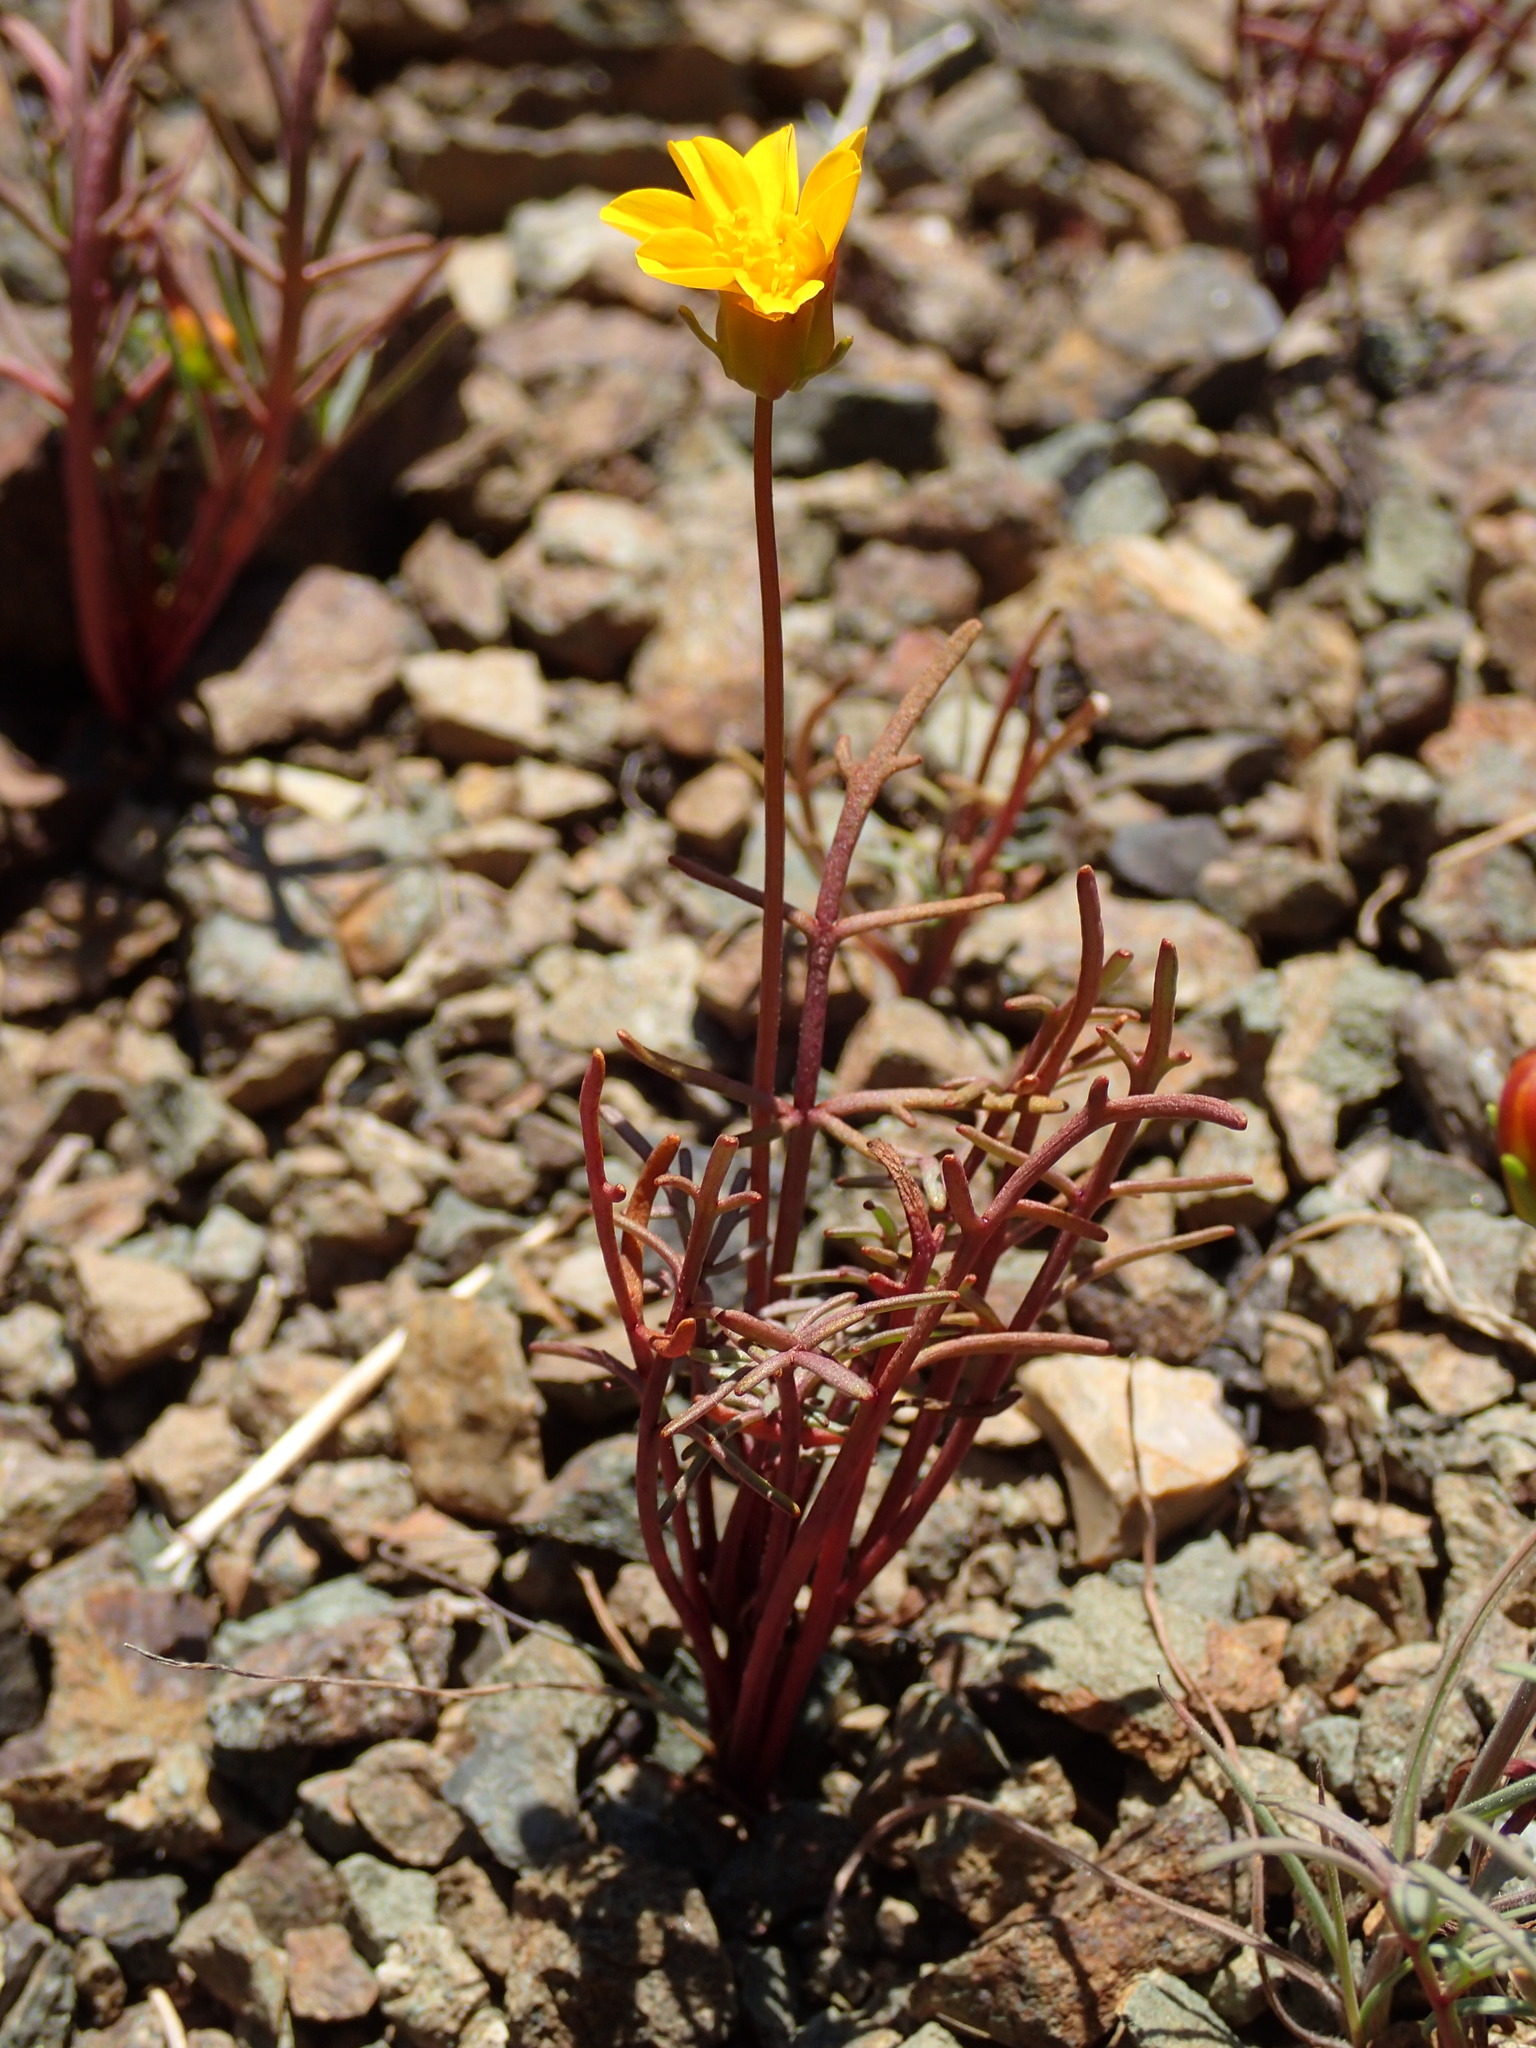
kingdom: Plantae
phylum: Tracheophyta
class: Magnoliopsida
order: Asterales
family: Asteraceae
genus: Coreopsis
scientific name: Coreopsis bigelovii
